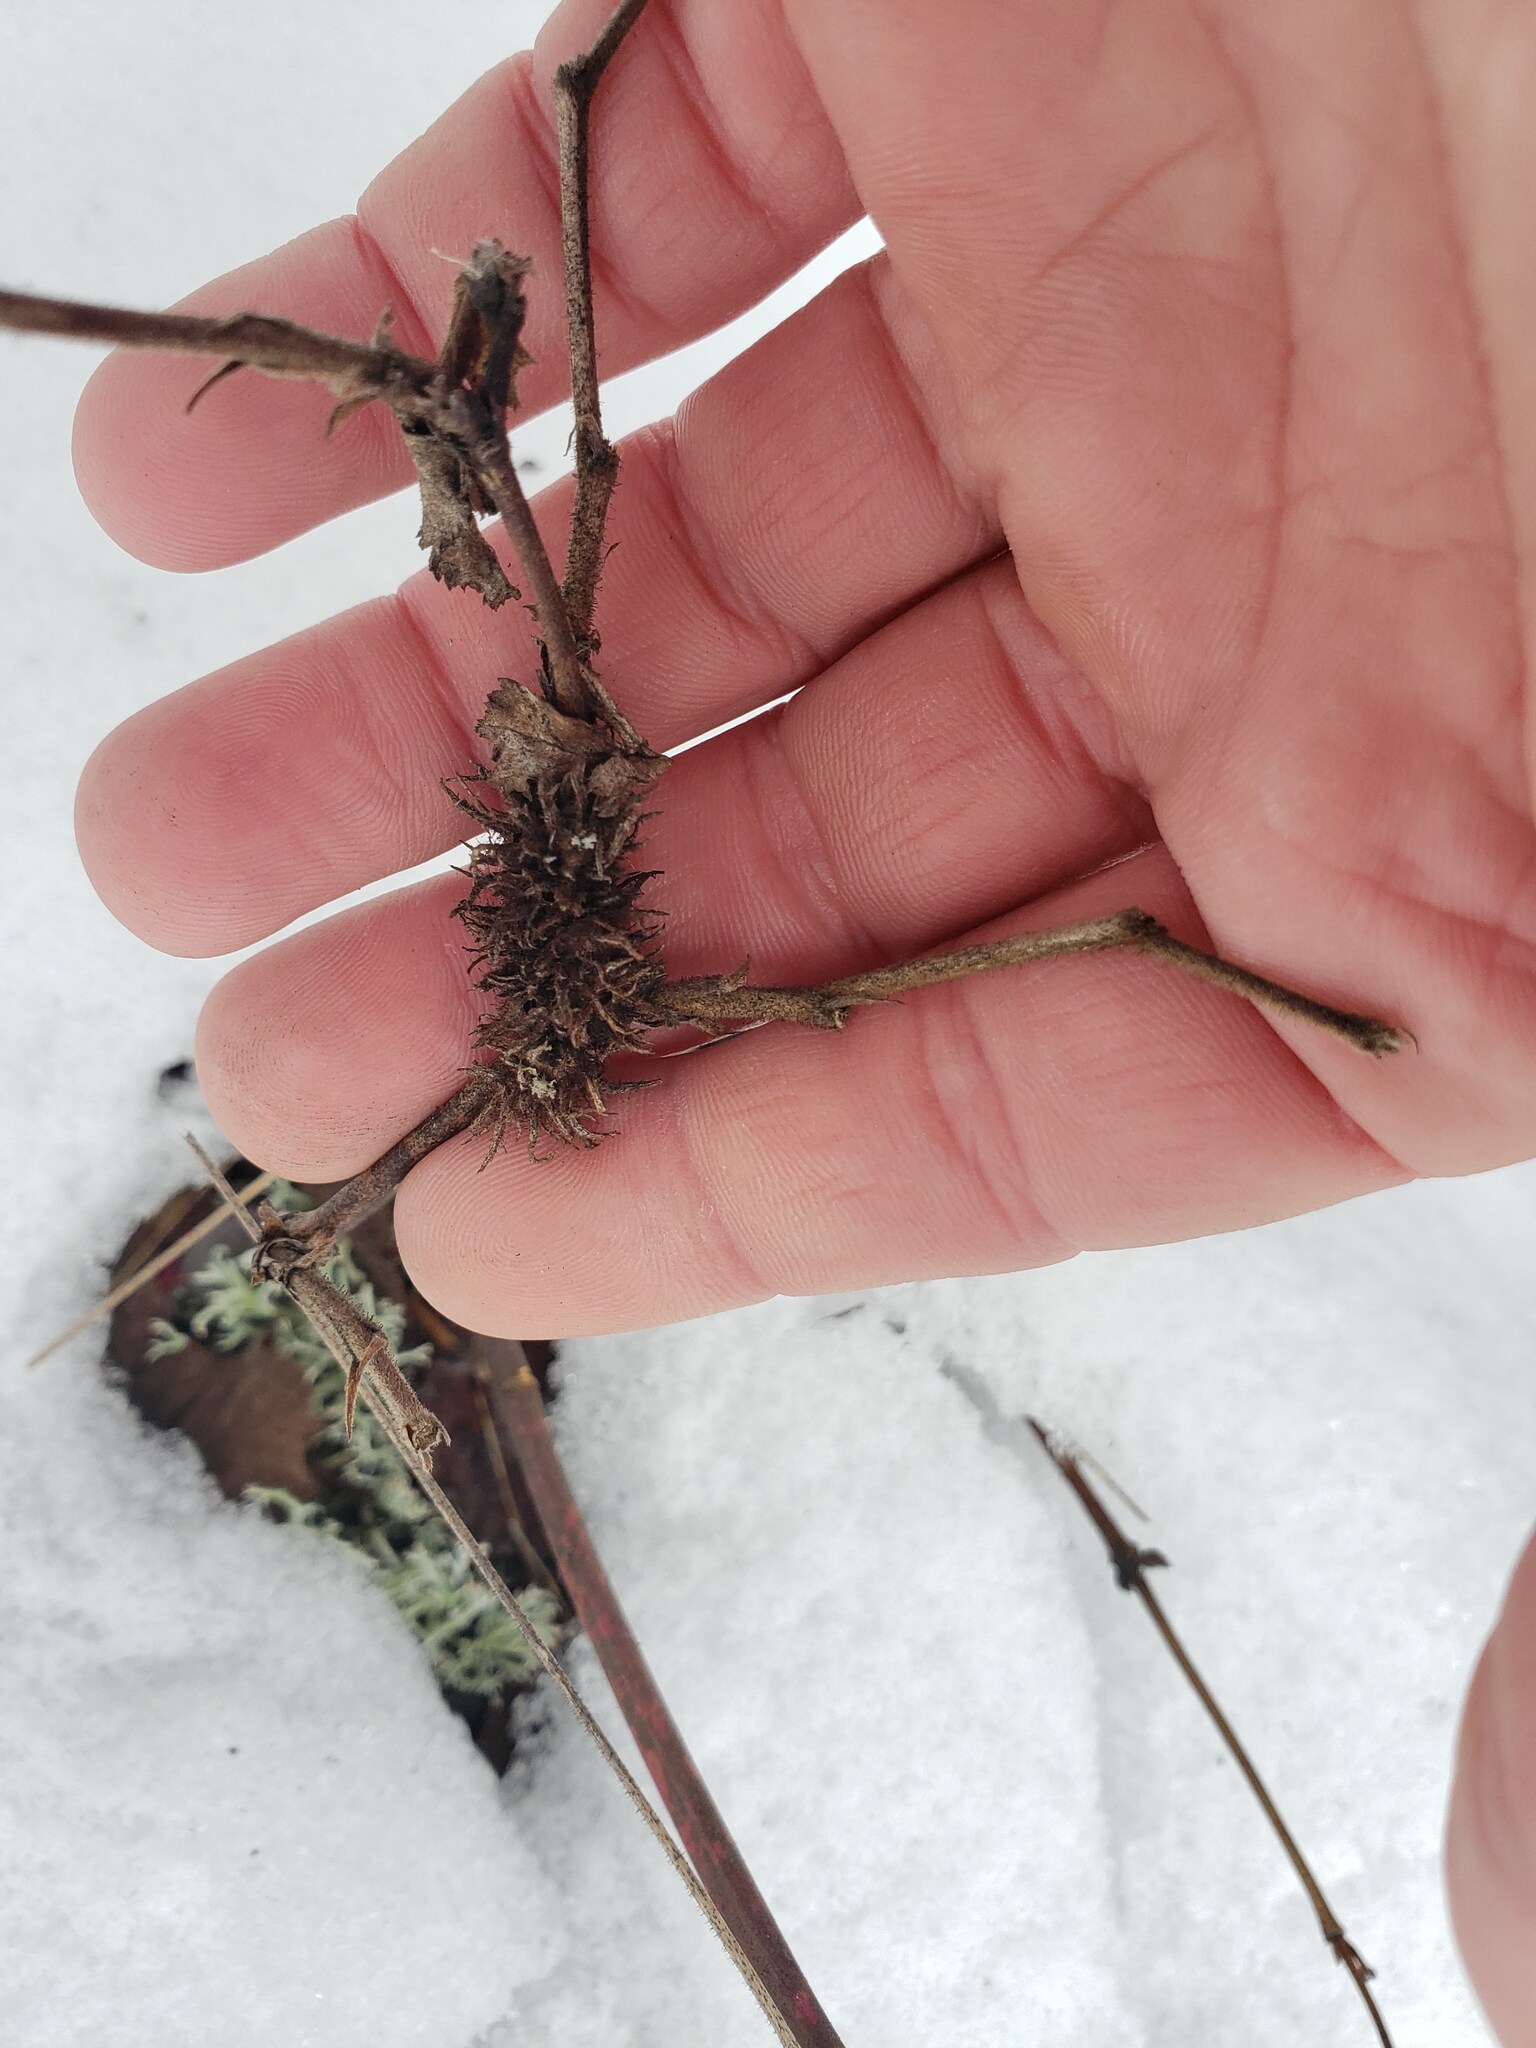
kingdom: Animalia
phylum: Arthropoda
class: Insecta
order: Hymenoptera
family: Cynipidae
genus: Diastrophus
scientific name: Diastrophus
